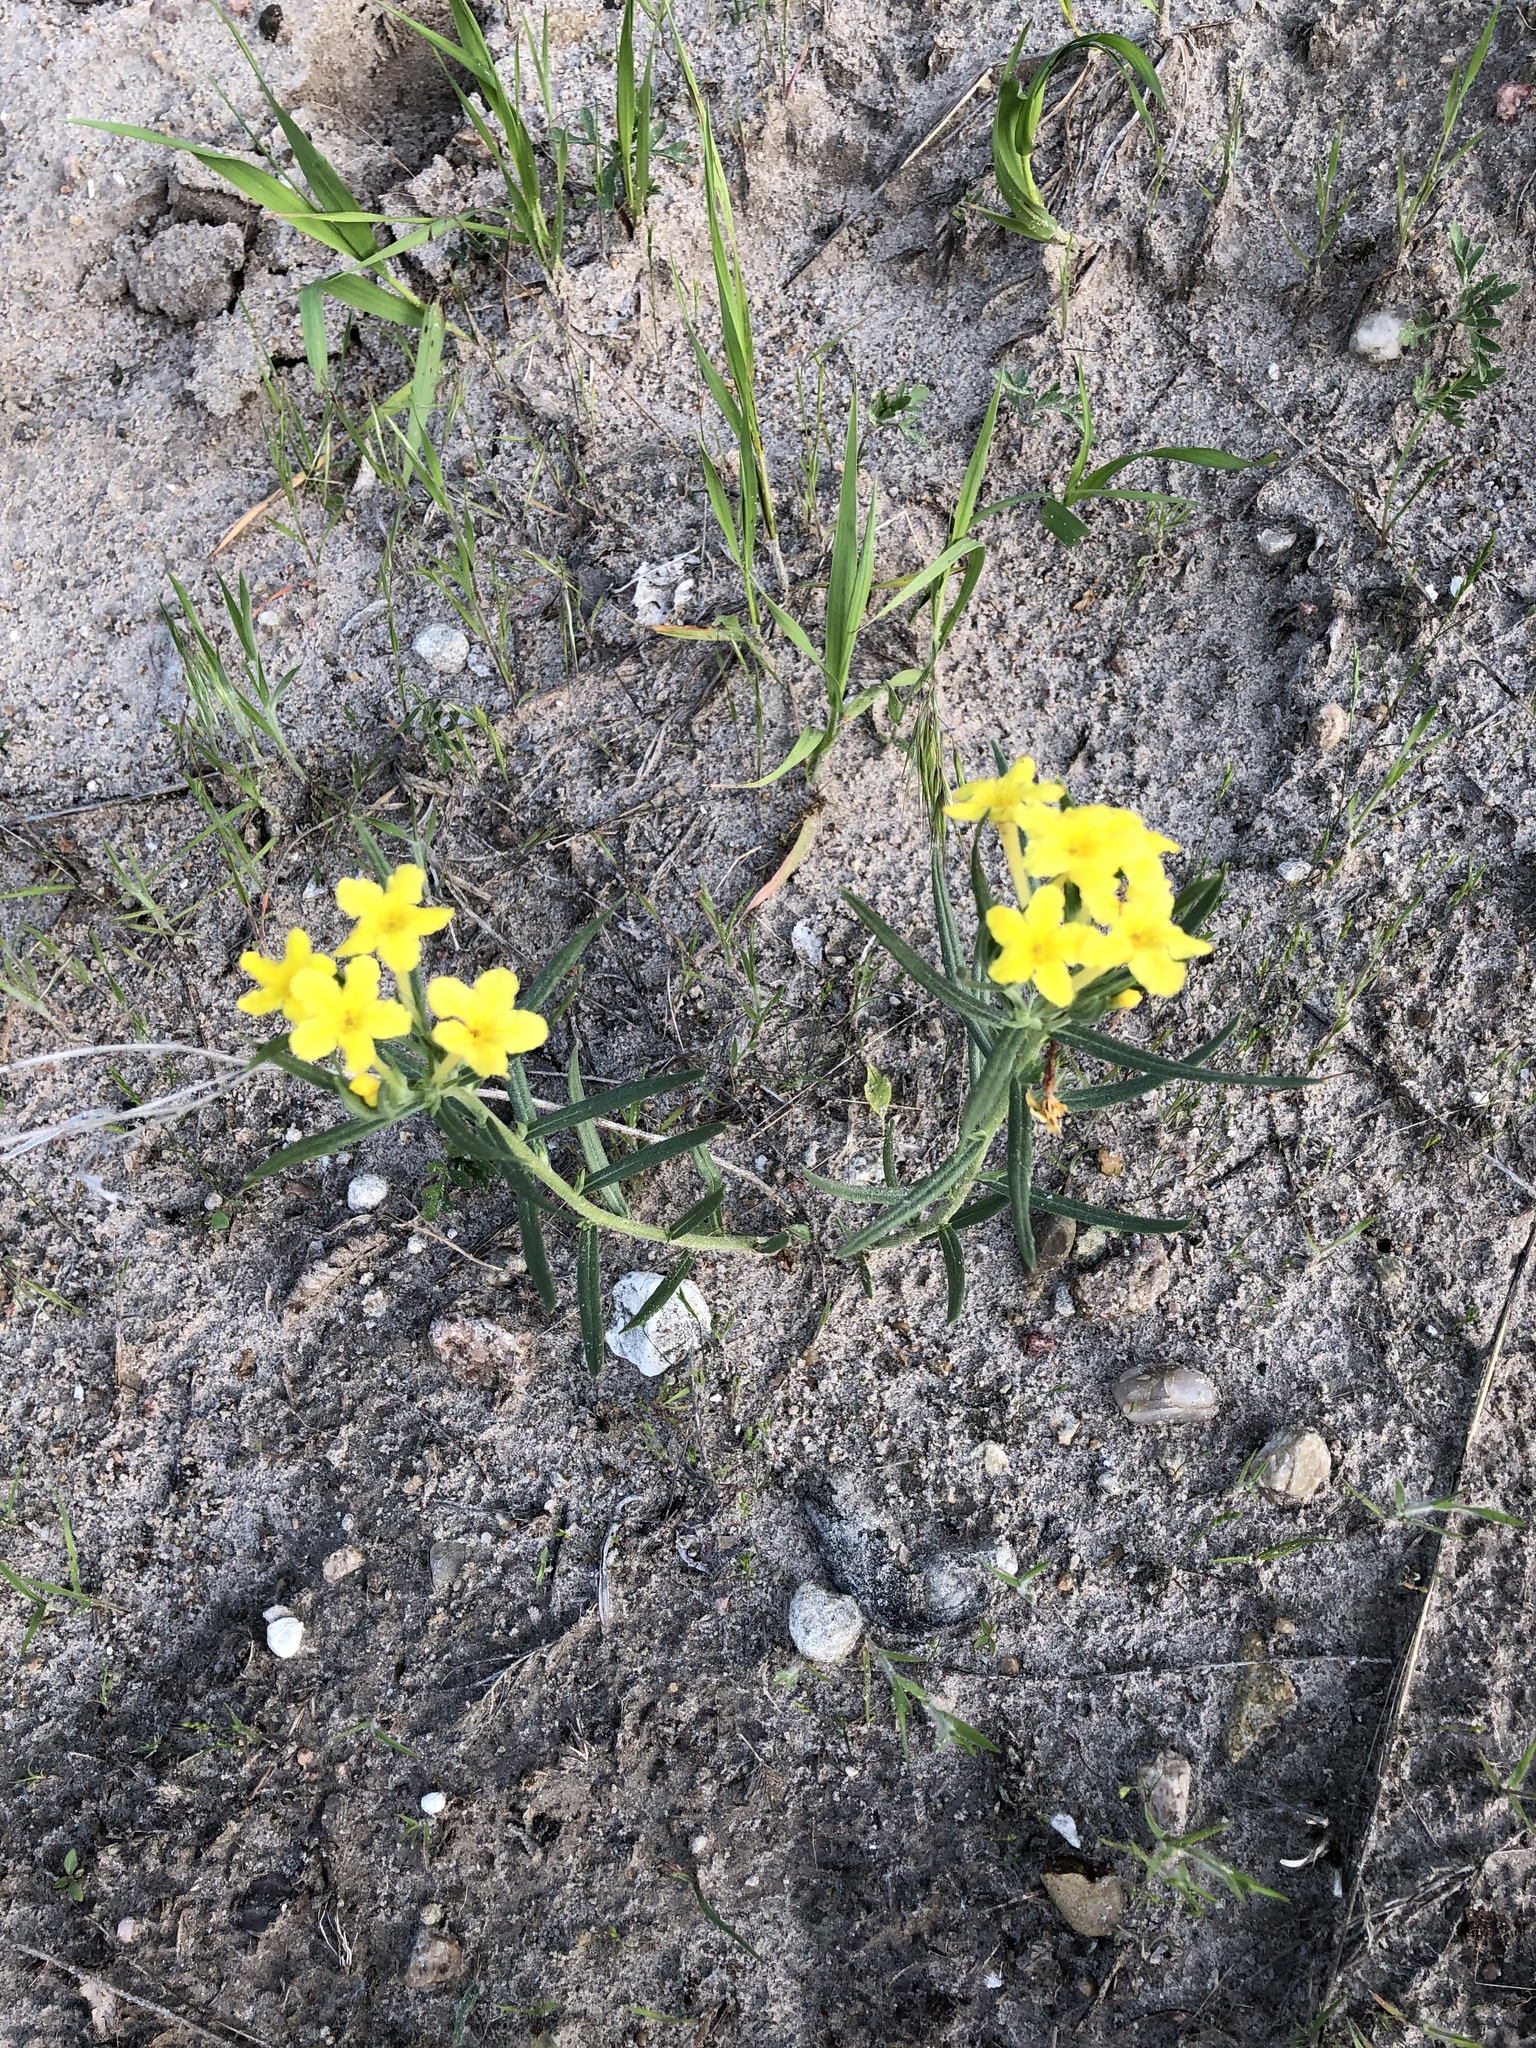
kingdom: Plantae
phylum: Tracheophyta
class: Magnoliopsida
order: Boraginales
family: Boraginaceae
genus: Lithospermum
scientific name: Lithospermum incisum
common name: Fringed gromwell
